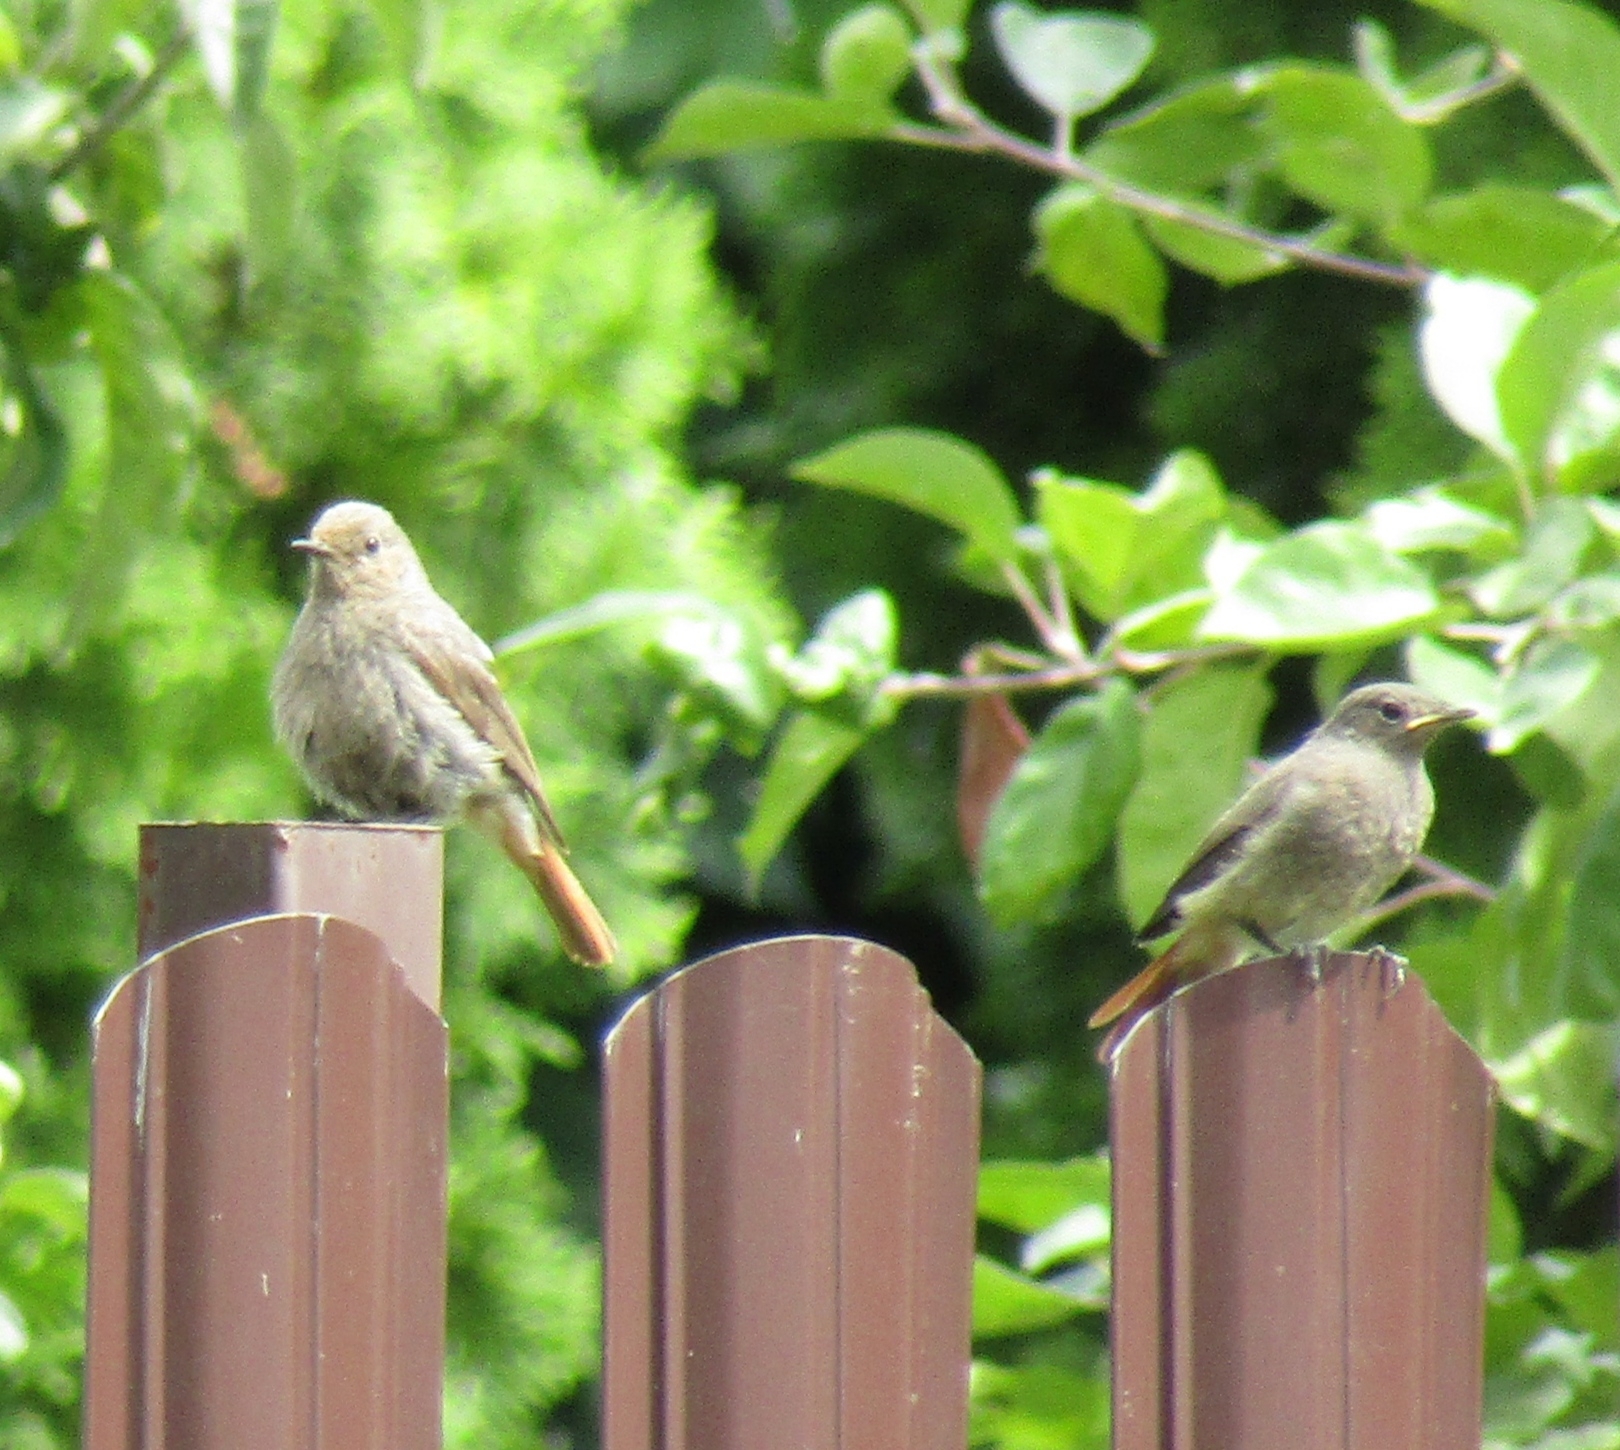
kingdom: Animalia
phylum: Chordata
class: Aves
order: Passeriformes
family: Muscicapidae
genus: Phoenicurus
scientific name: Phoenicurus ochruros
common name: Black redstart
